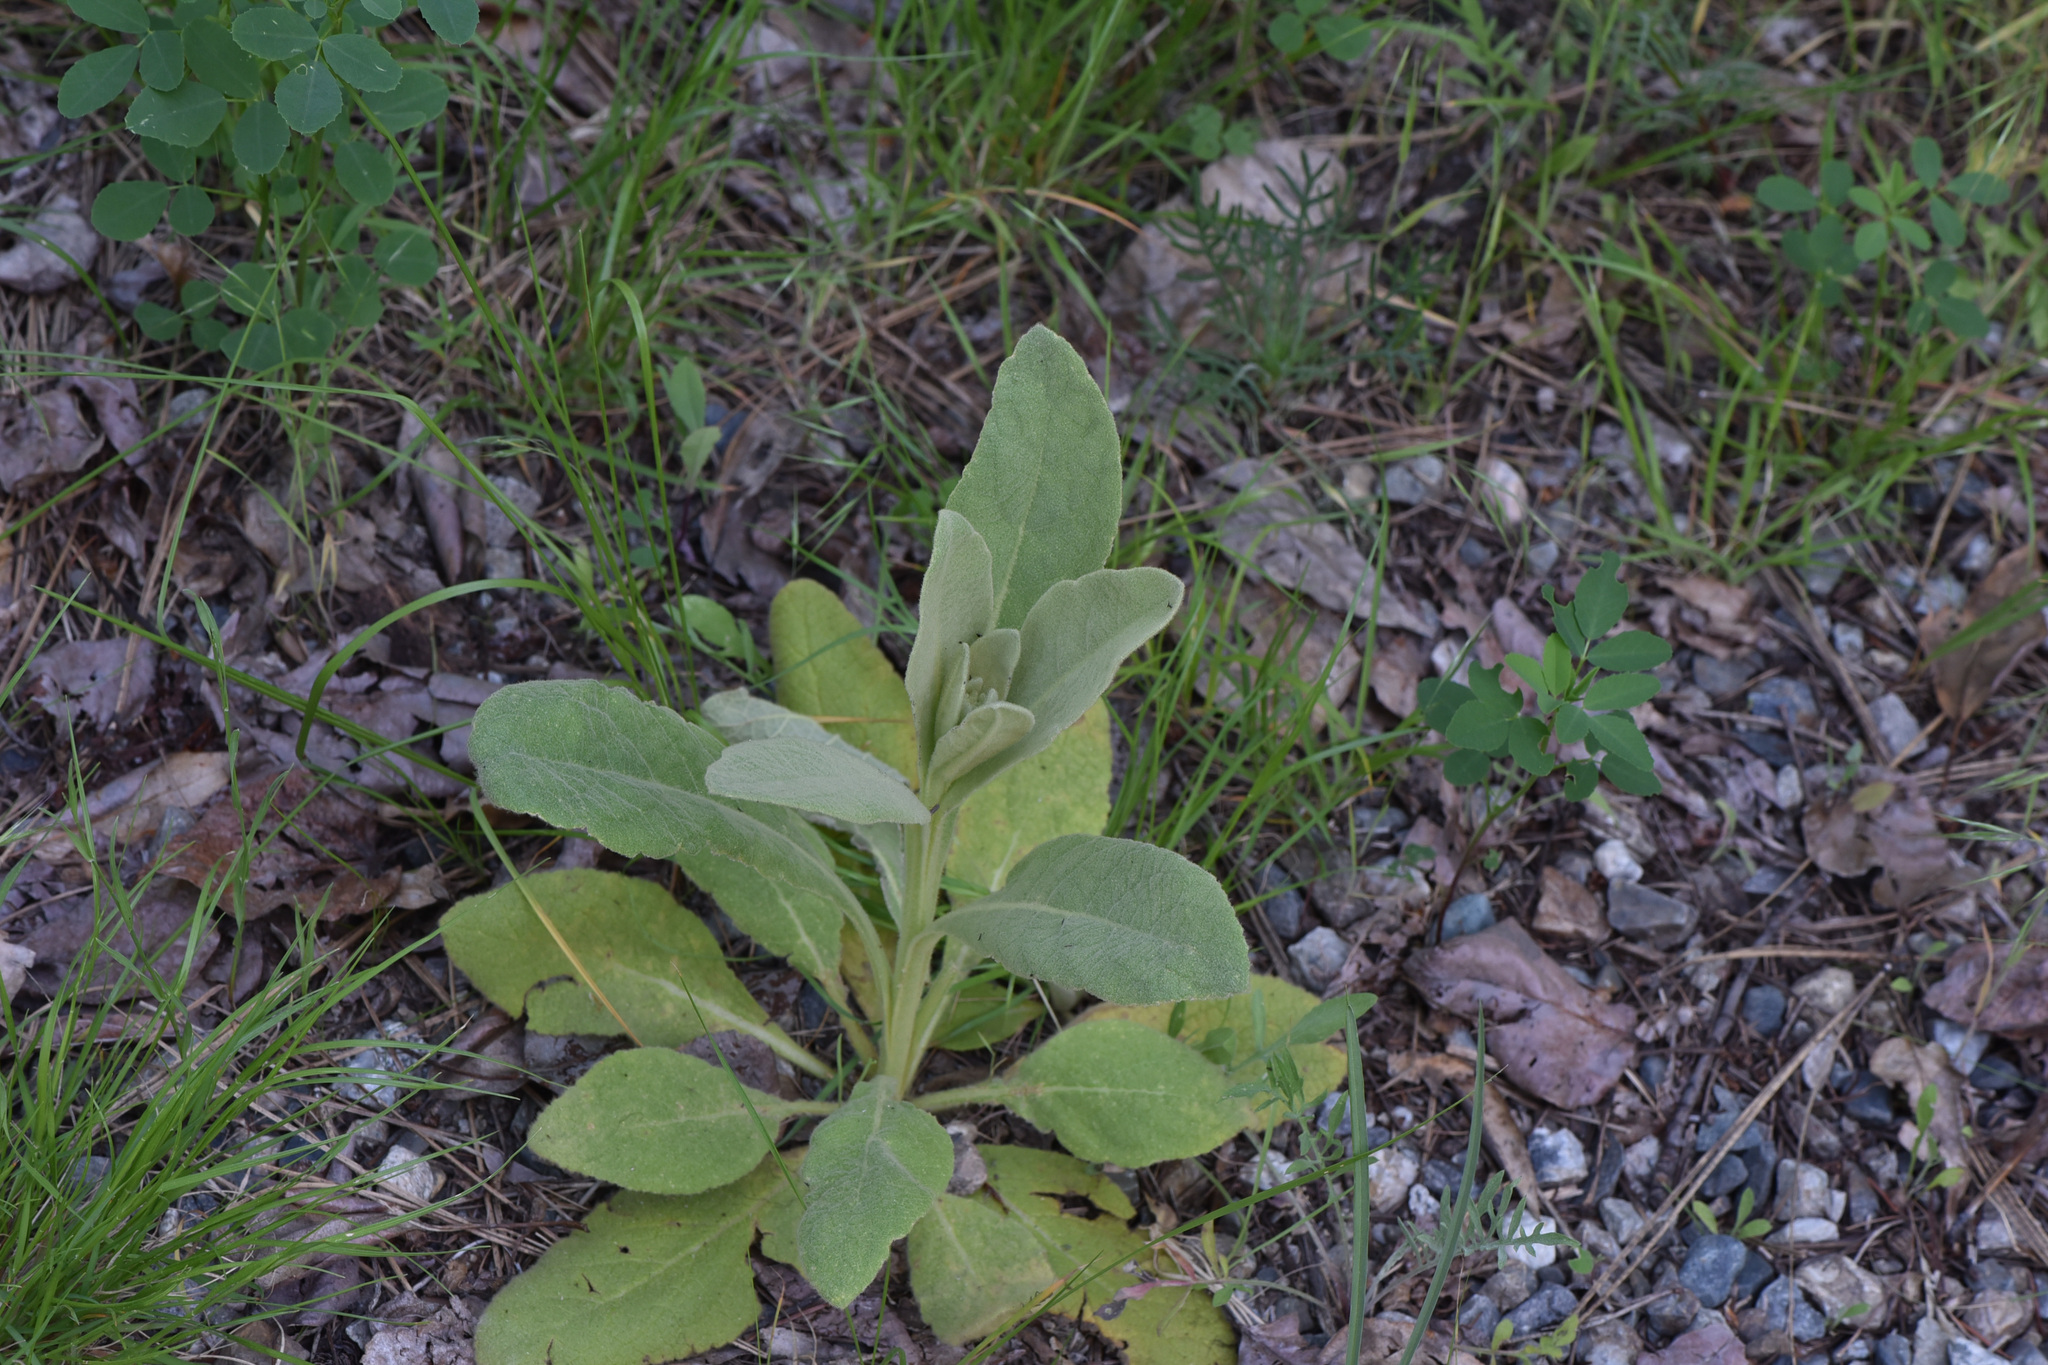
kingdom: Plantae
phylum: Tracheophyta
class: Magnoliopsida
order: Lamiales
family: Scrophulariaceae
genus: Verbascum
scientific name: Verbascum thapsus
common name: Common mullein
